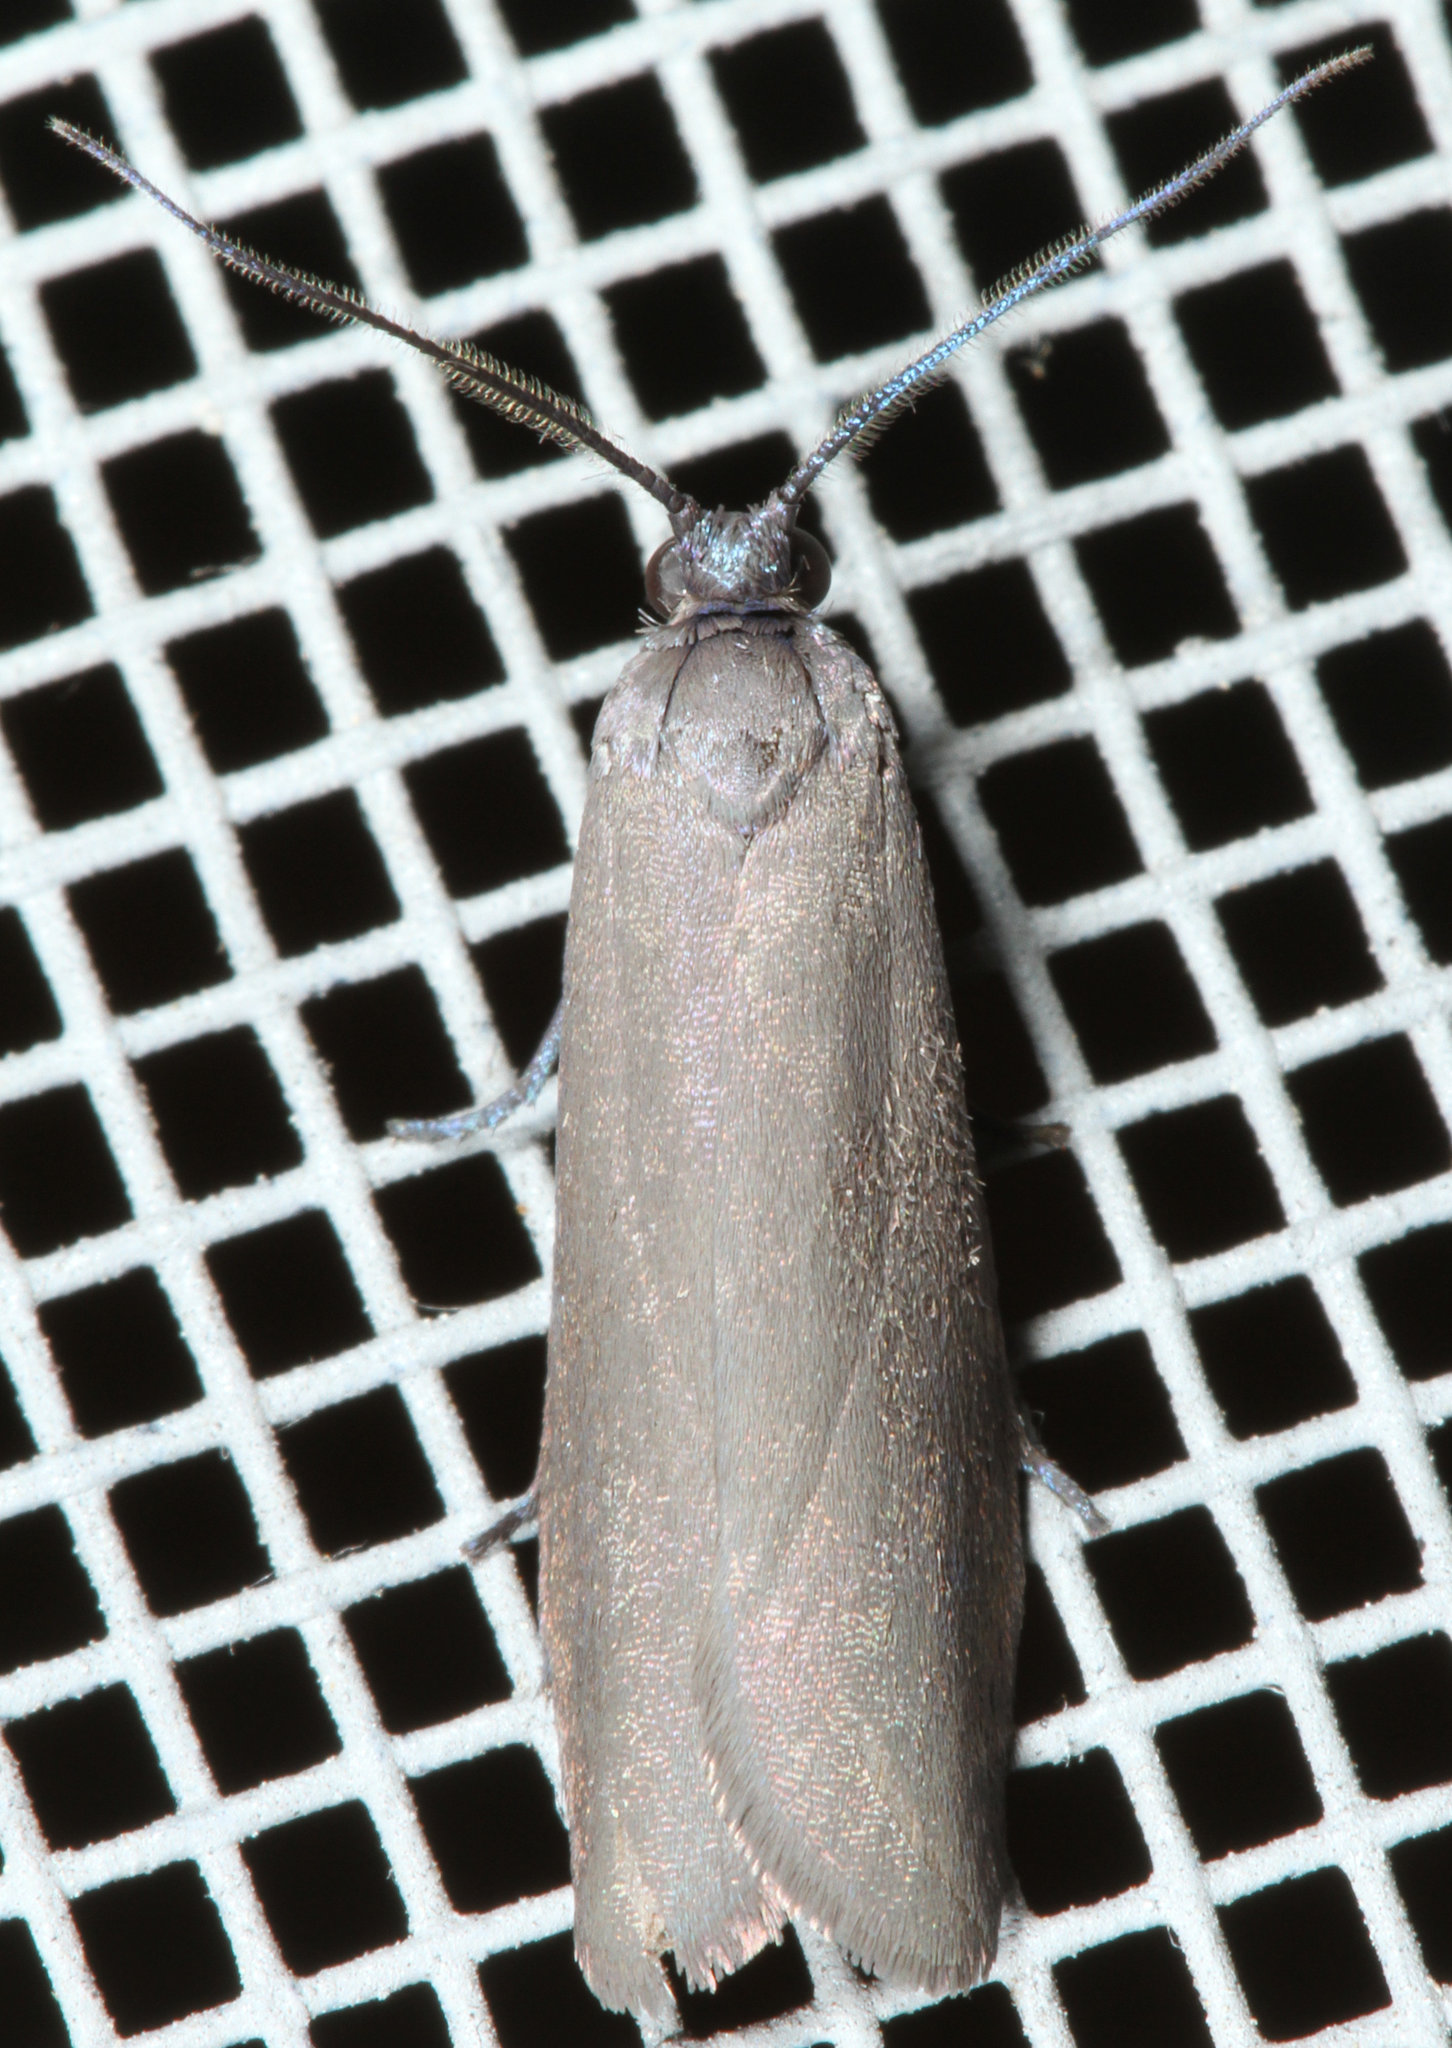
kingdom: Animalia
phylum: Arthropoda
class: Insecta
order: Lepidoptera
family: Urodidae
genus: Urodus
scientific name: Urodus parvula
